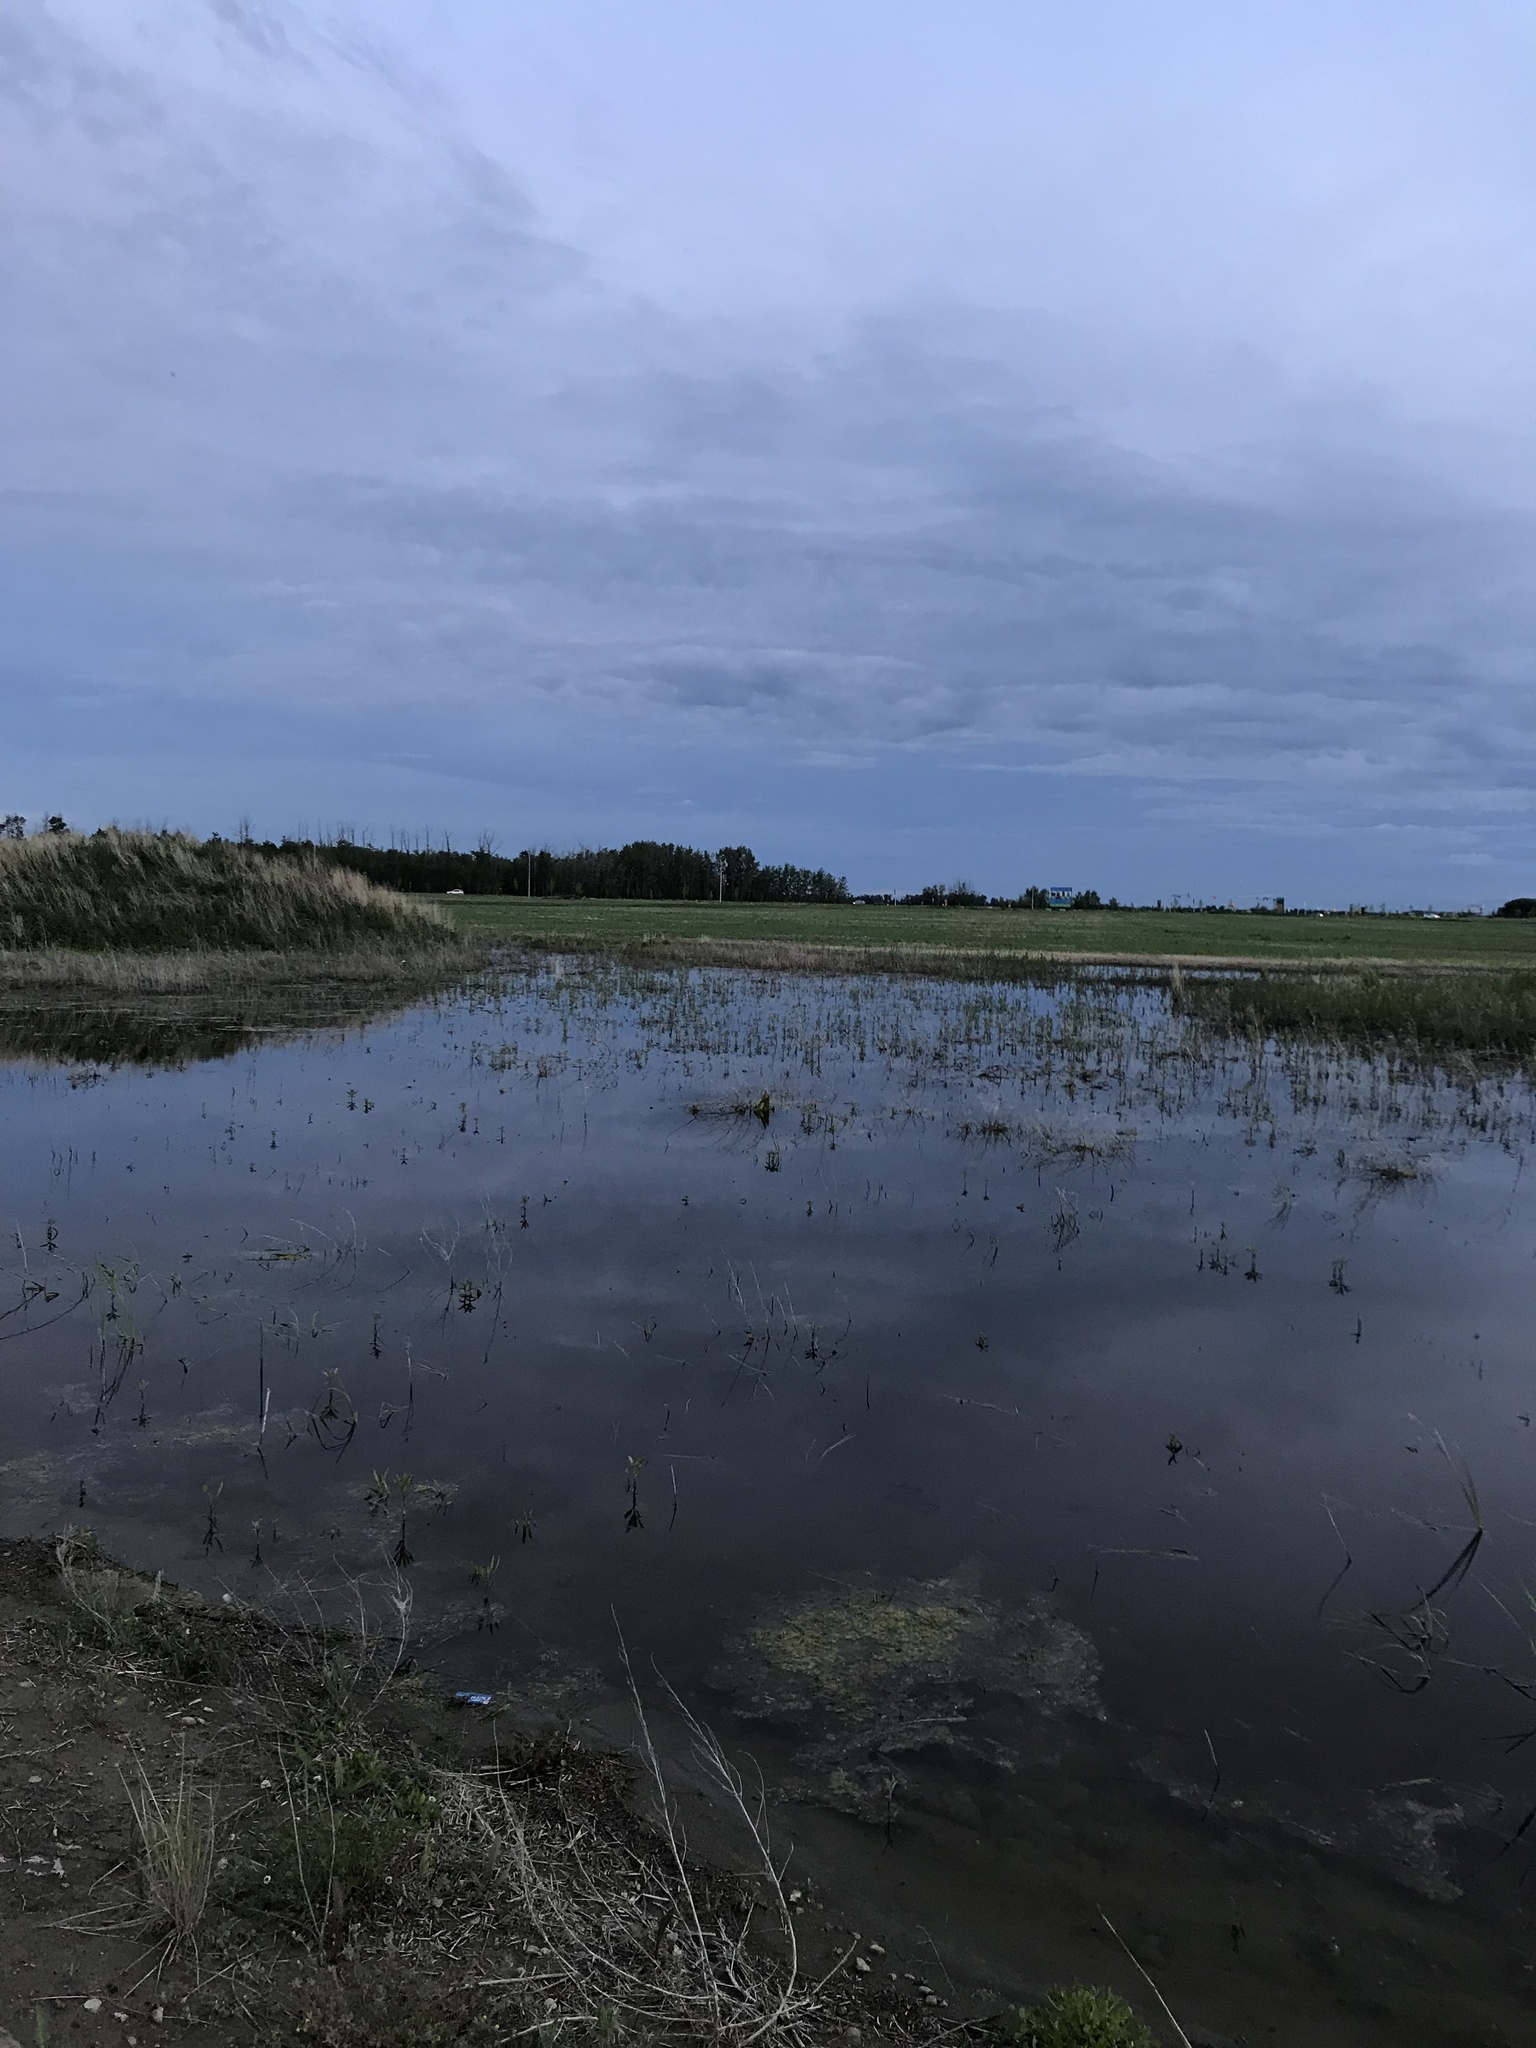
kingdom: Animalia
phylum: Chordata
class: Amphibia
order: Anura
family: Hylidae
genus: Pseudacris
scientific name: Pseudacris maculata
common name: Boreal chorus frog
